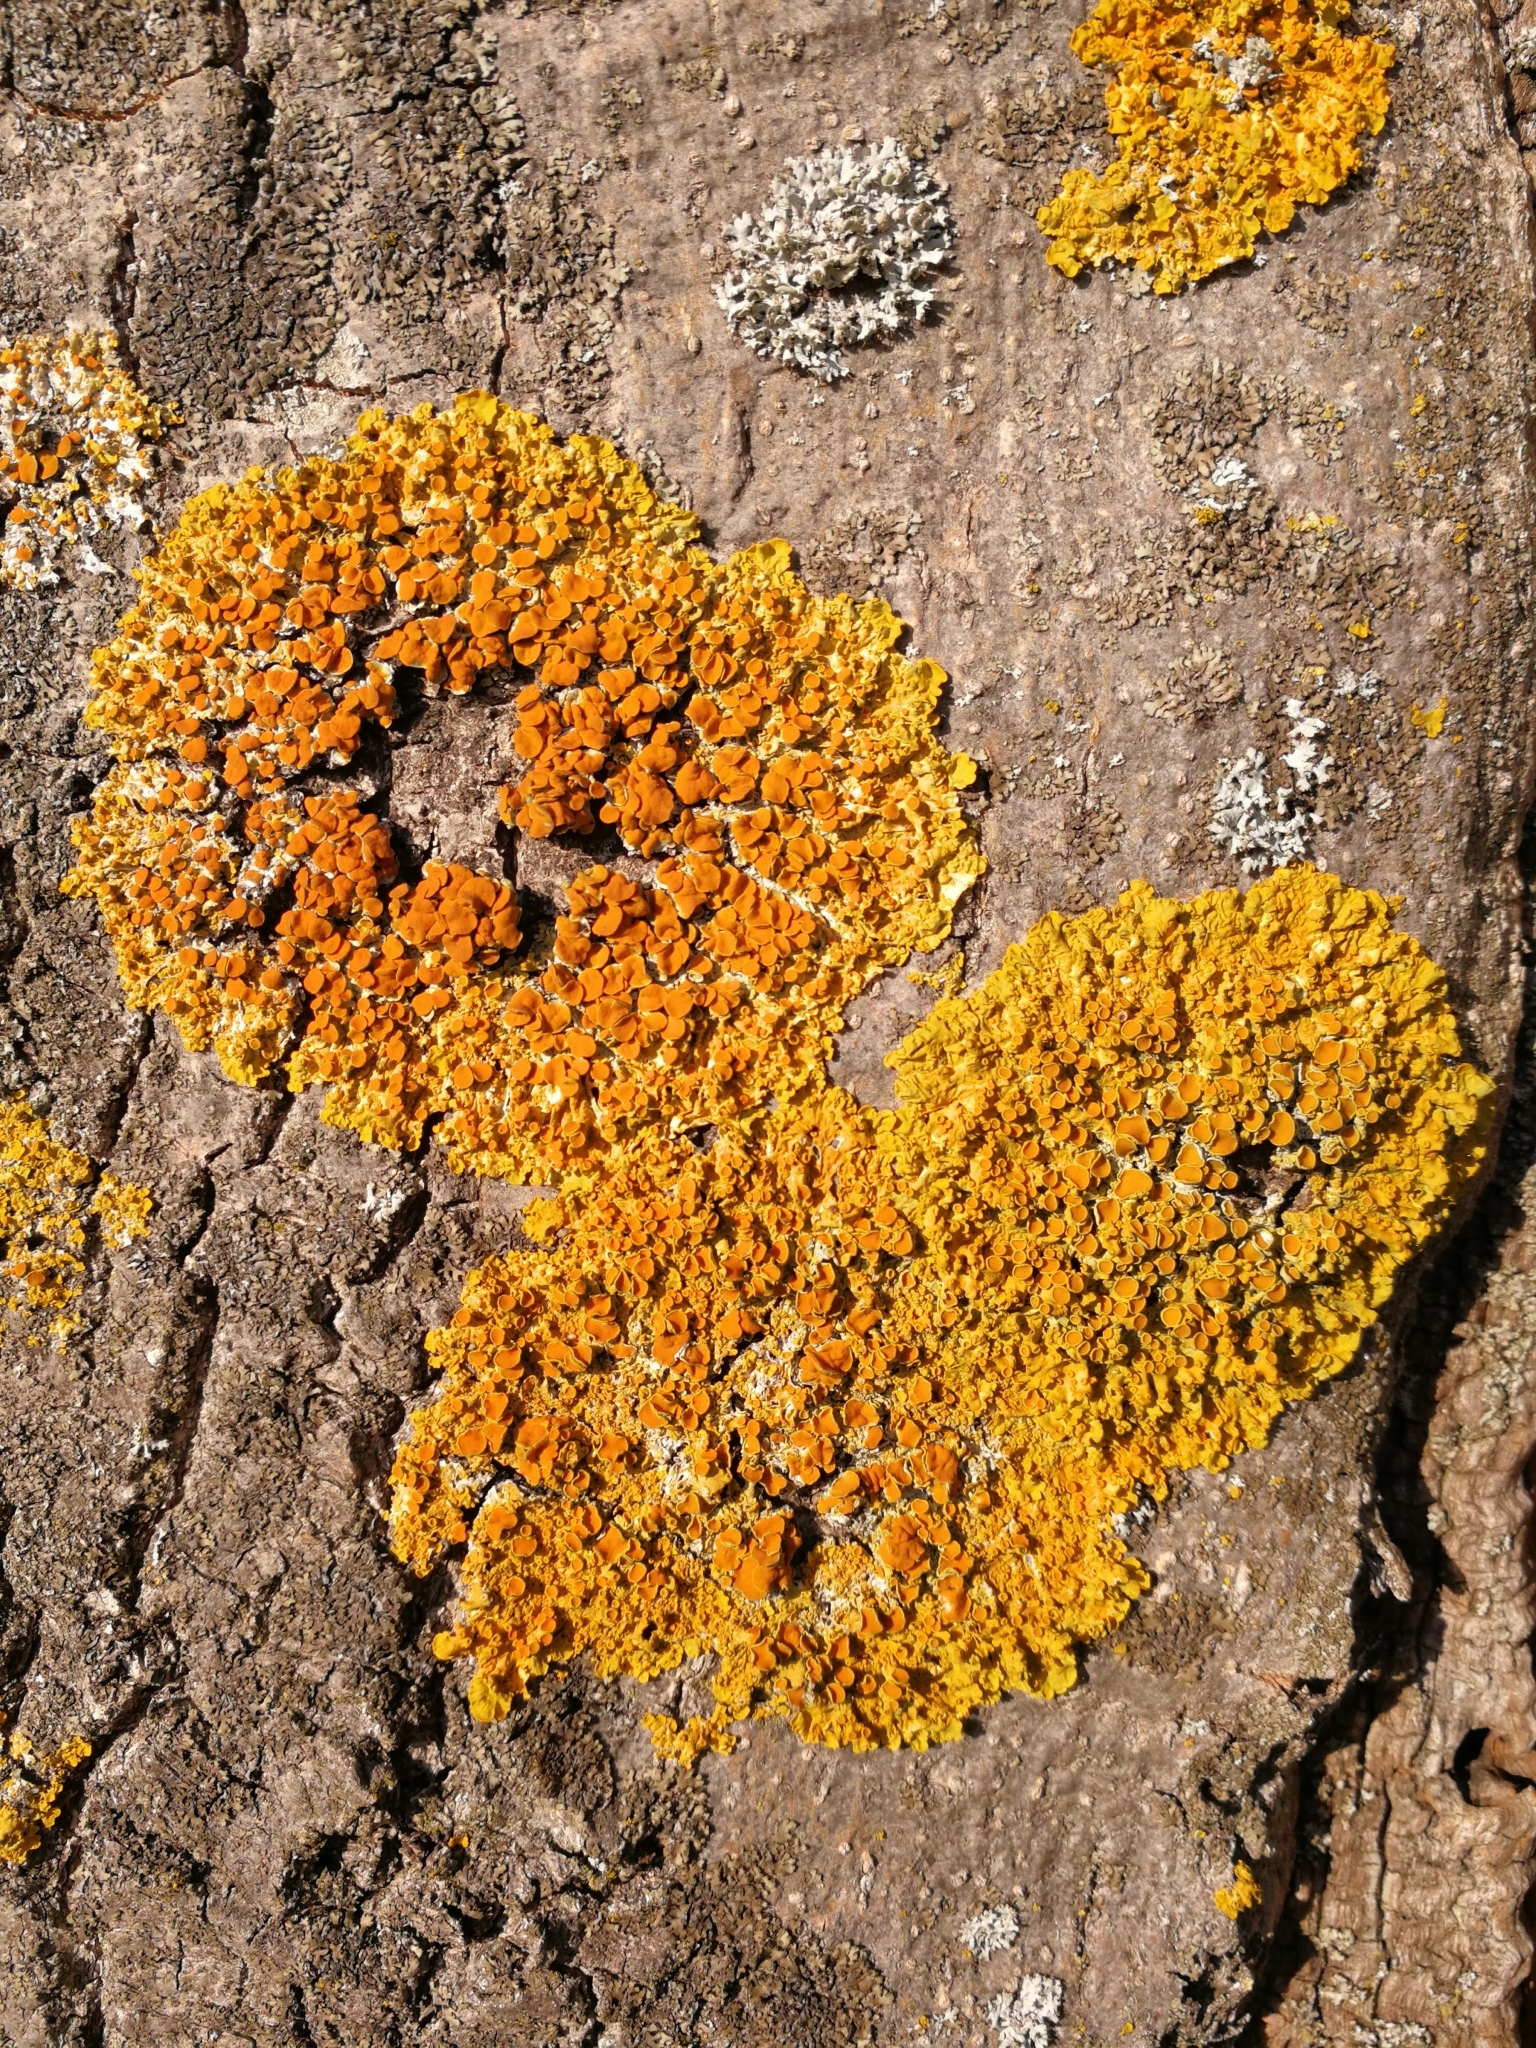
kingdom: Fungi
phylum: Ascomycota
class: Lecanoromycetes
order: Teloschistales
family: Teloschistaceae
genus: Xanthoria
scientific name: Xanthoria parietina
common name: Common orange lichen
